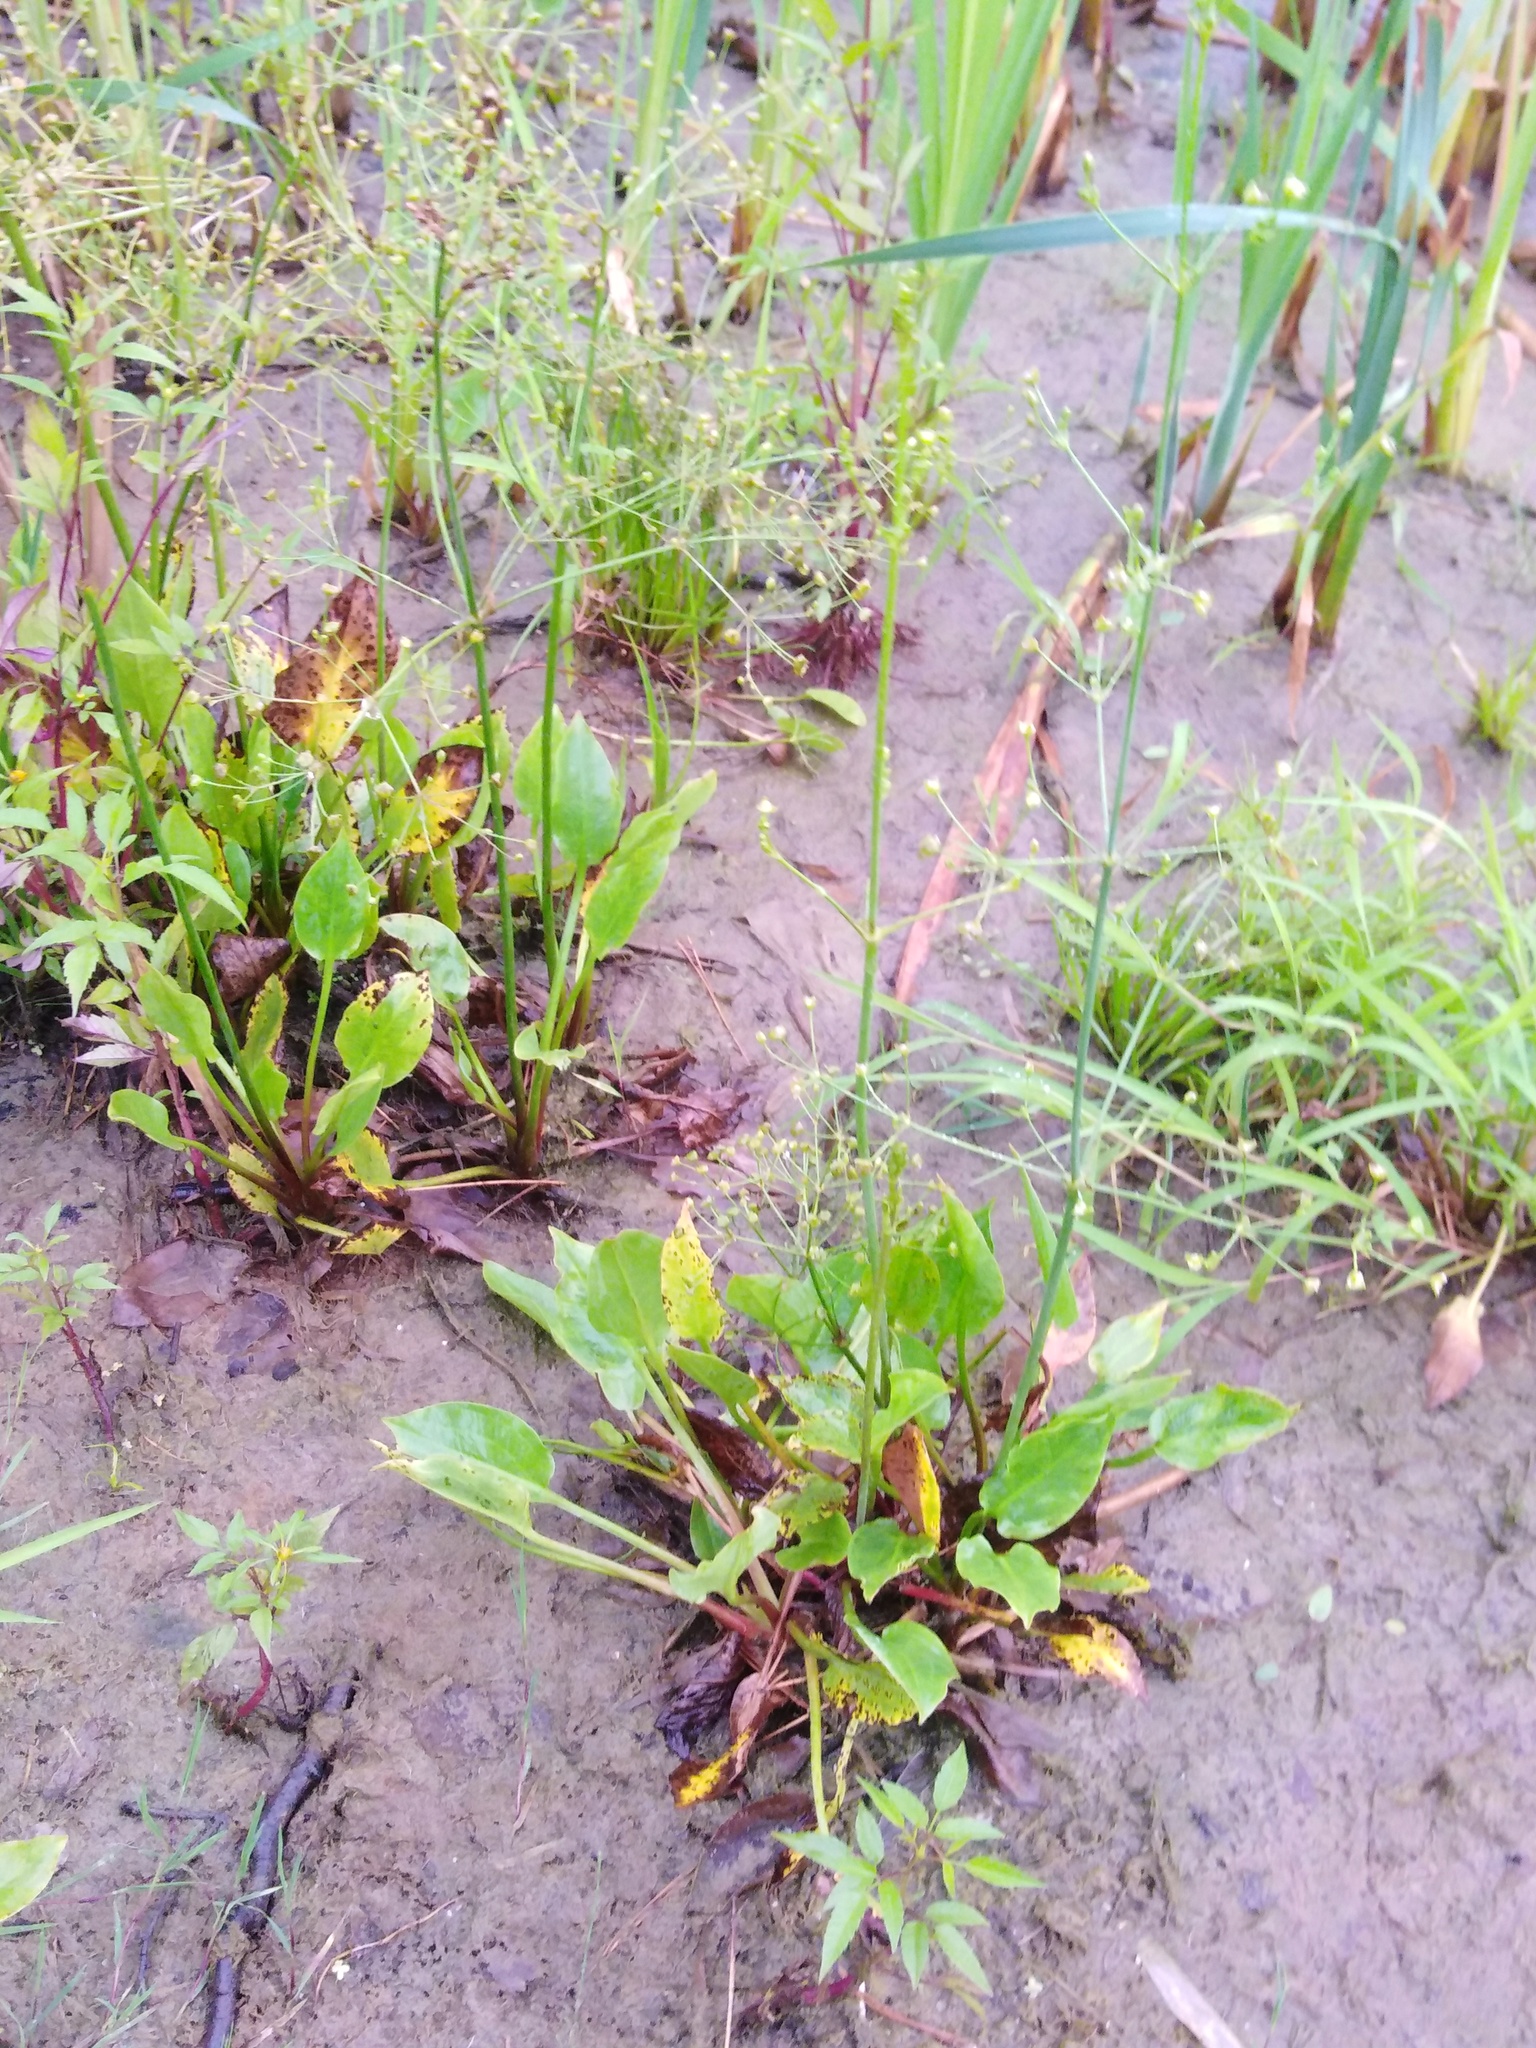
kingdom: Plantae
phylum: Tracheophyta
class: Liliopsida
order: Alismatales
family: Alismataceae
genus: Alisma
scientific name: Alisma plantago-aquatica
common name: Water-plantain
